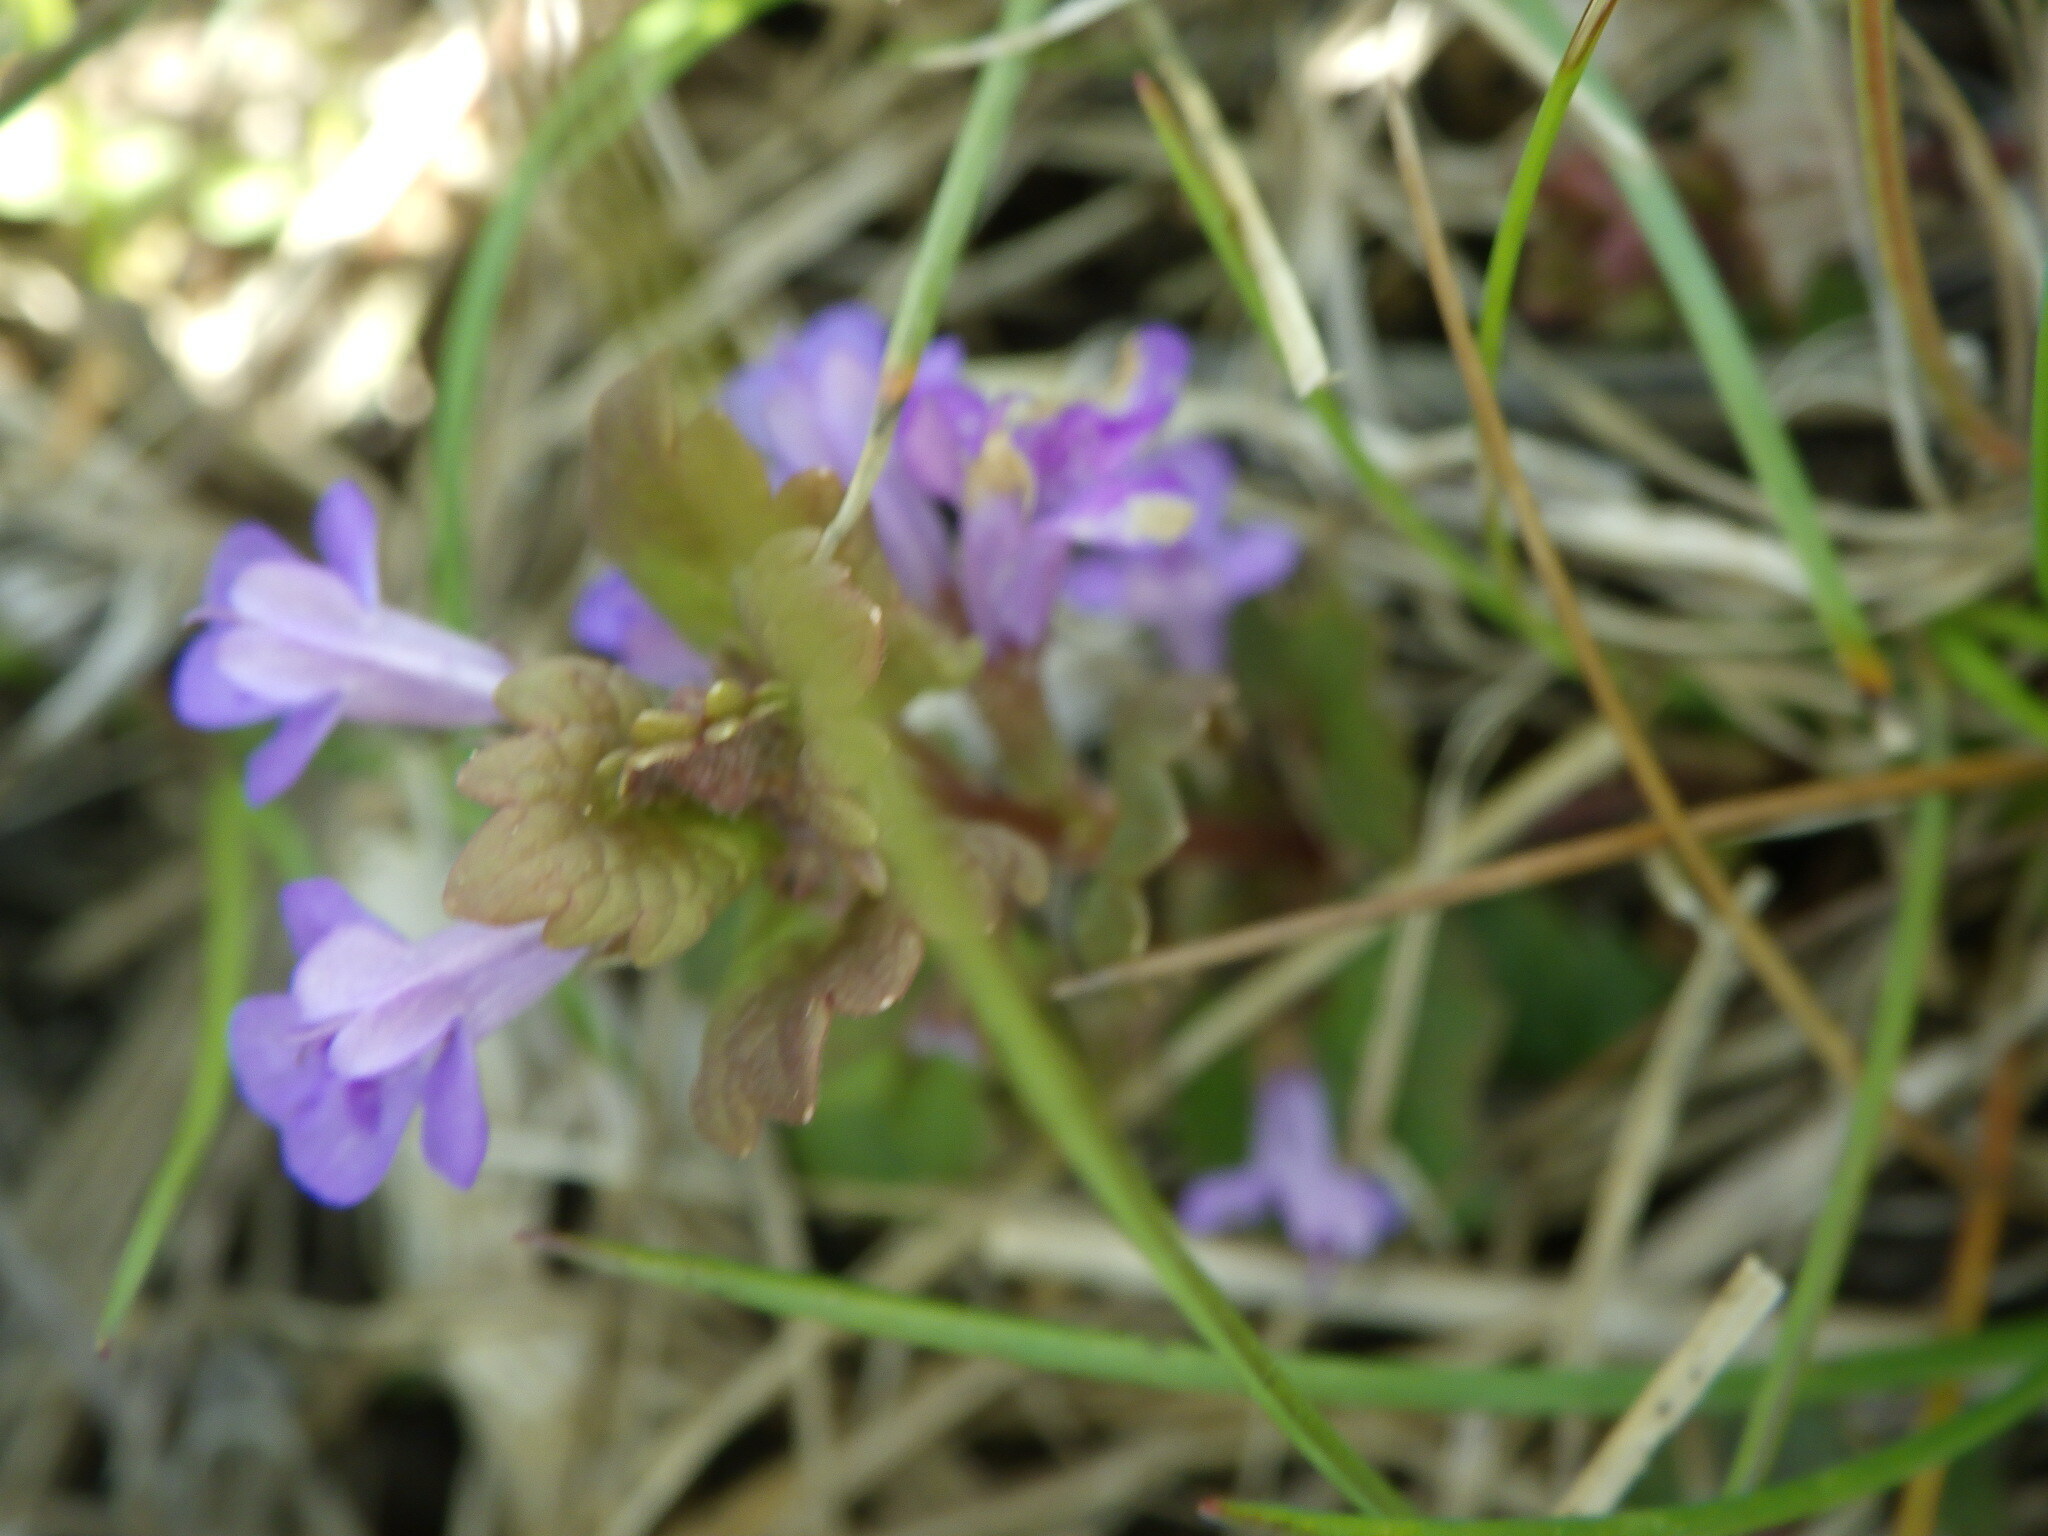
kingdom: Plantae
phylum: Tracheophyta
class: Magnoliopsida
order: Lamiales
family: Lamiaceae
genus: Glechoma
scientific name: Glechoma hederacea
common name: Ground ivy
